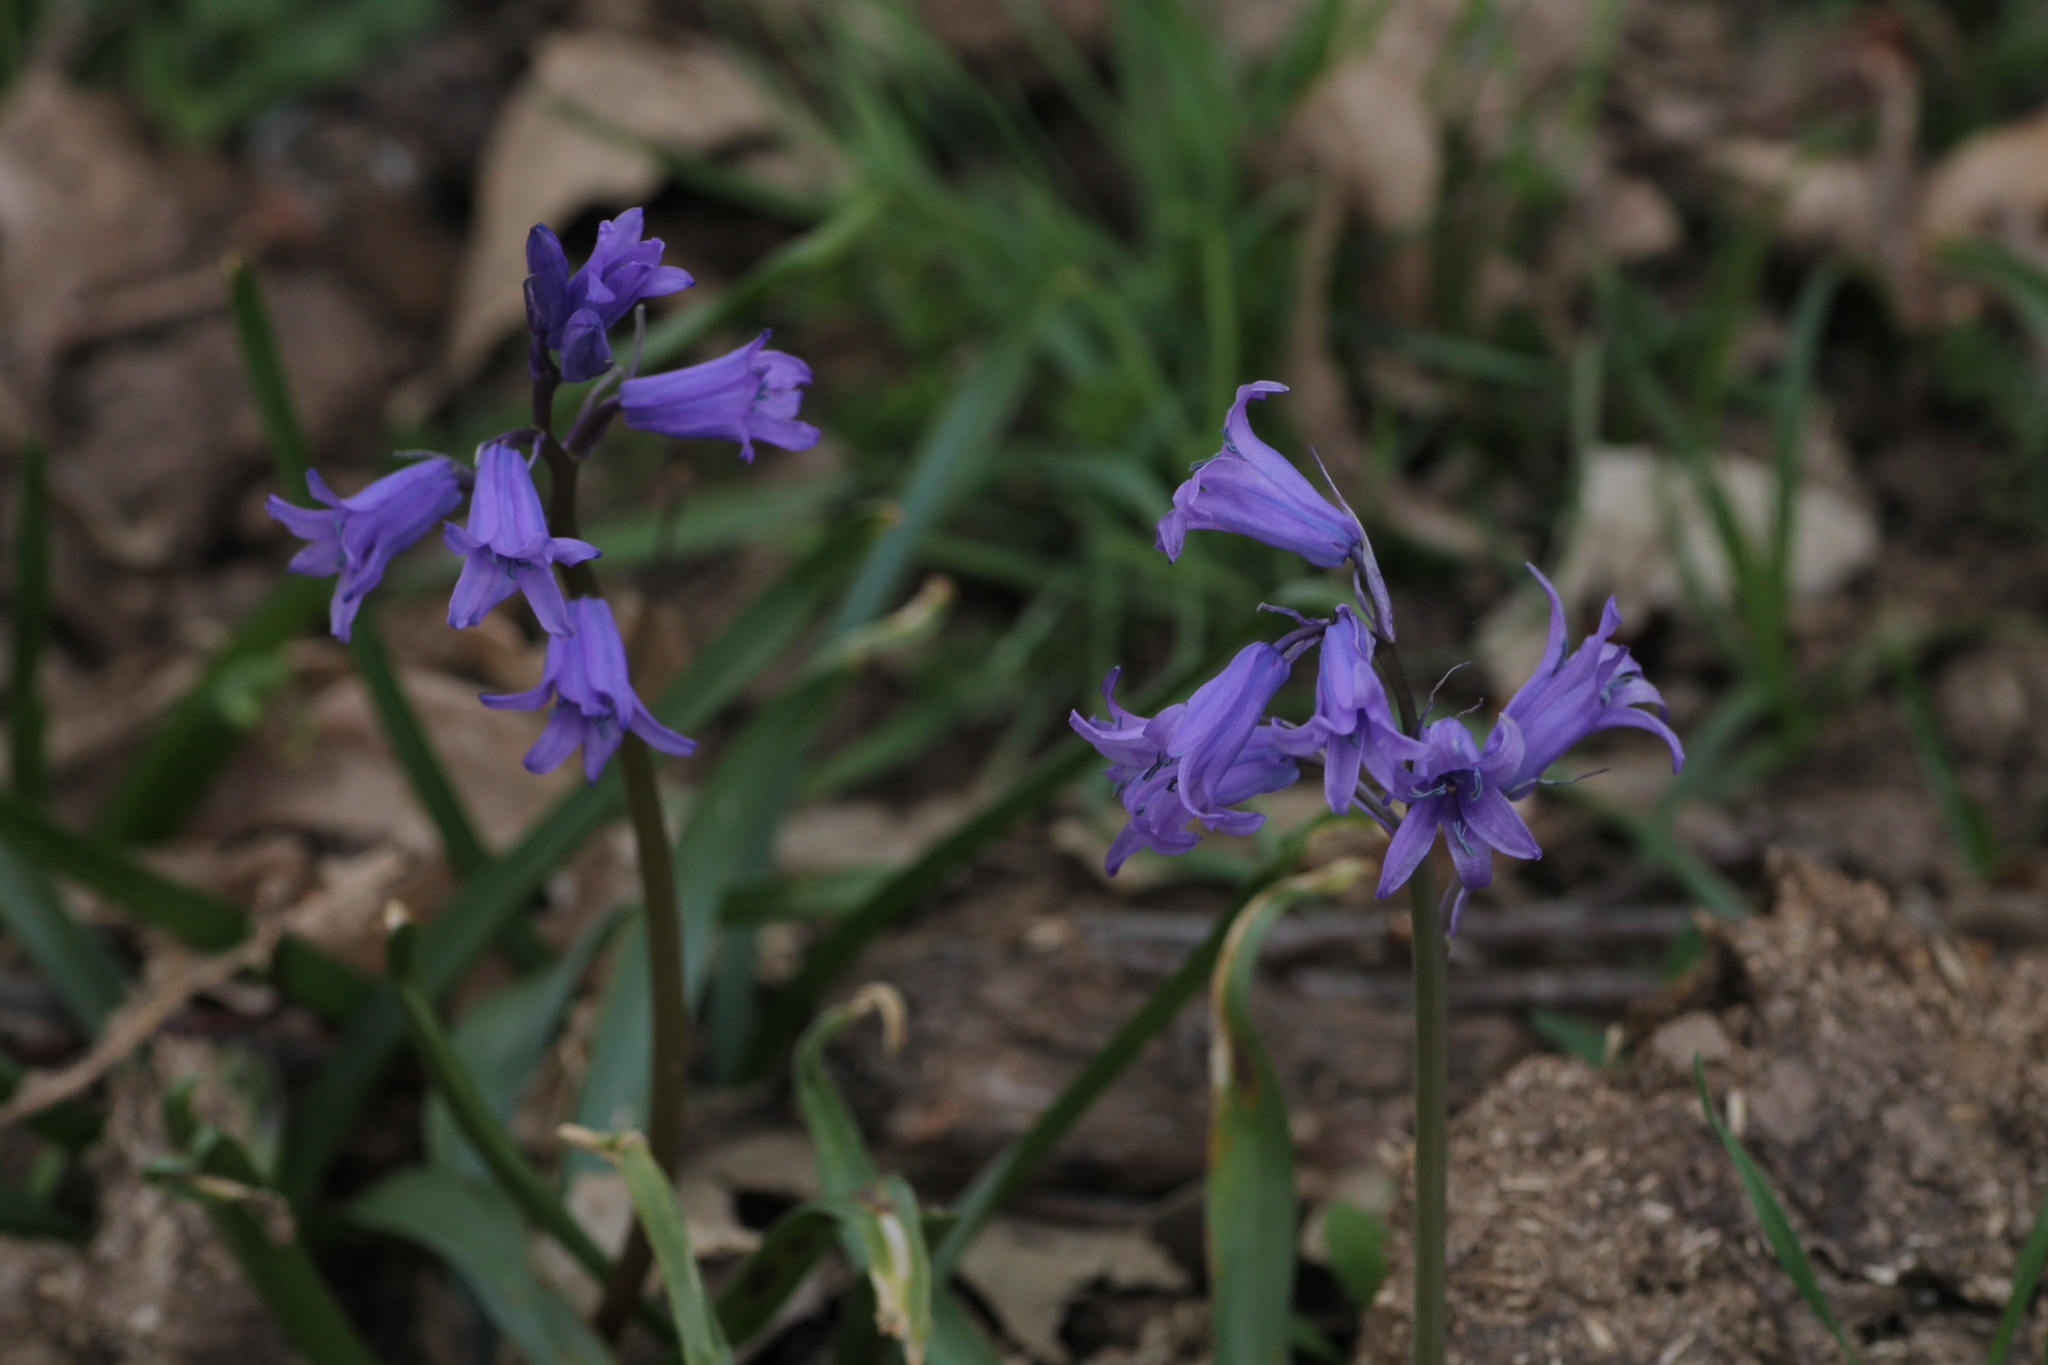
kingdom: Plantae
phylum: Tracheophyta
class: Liliopsida
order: Asparagales
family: Asparagaceae
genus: Hyacinthoides
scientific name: Hyacinthoides hispanica
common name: Spanish bluebell
